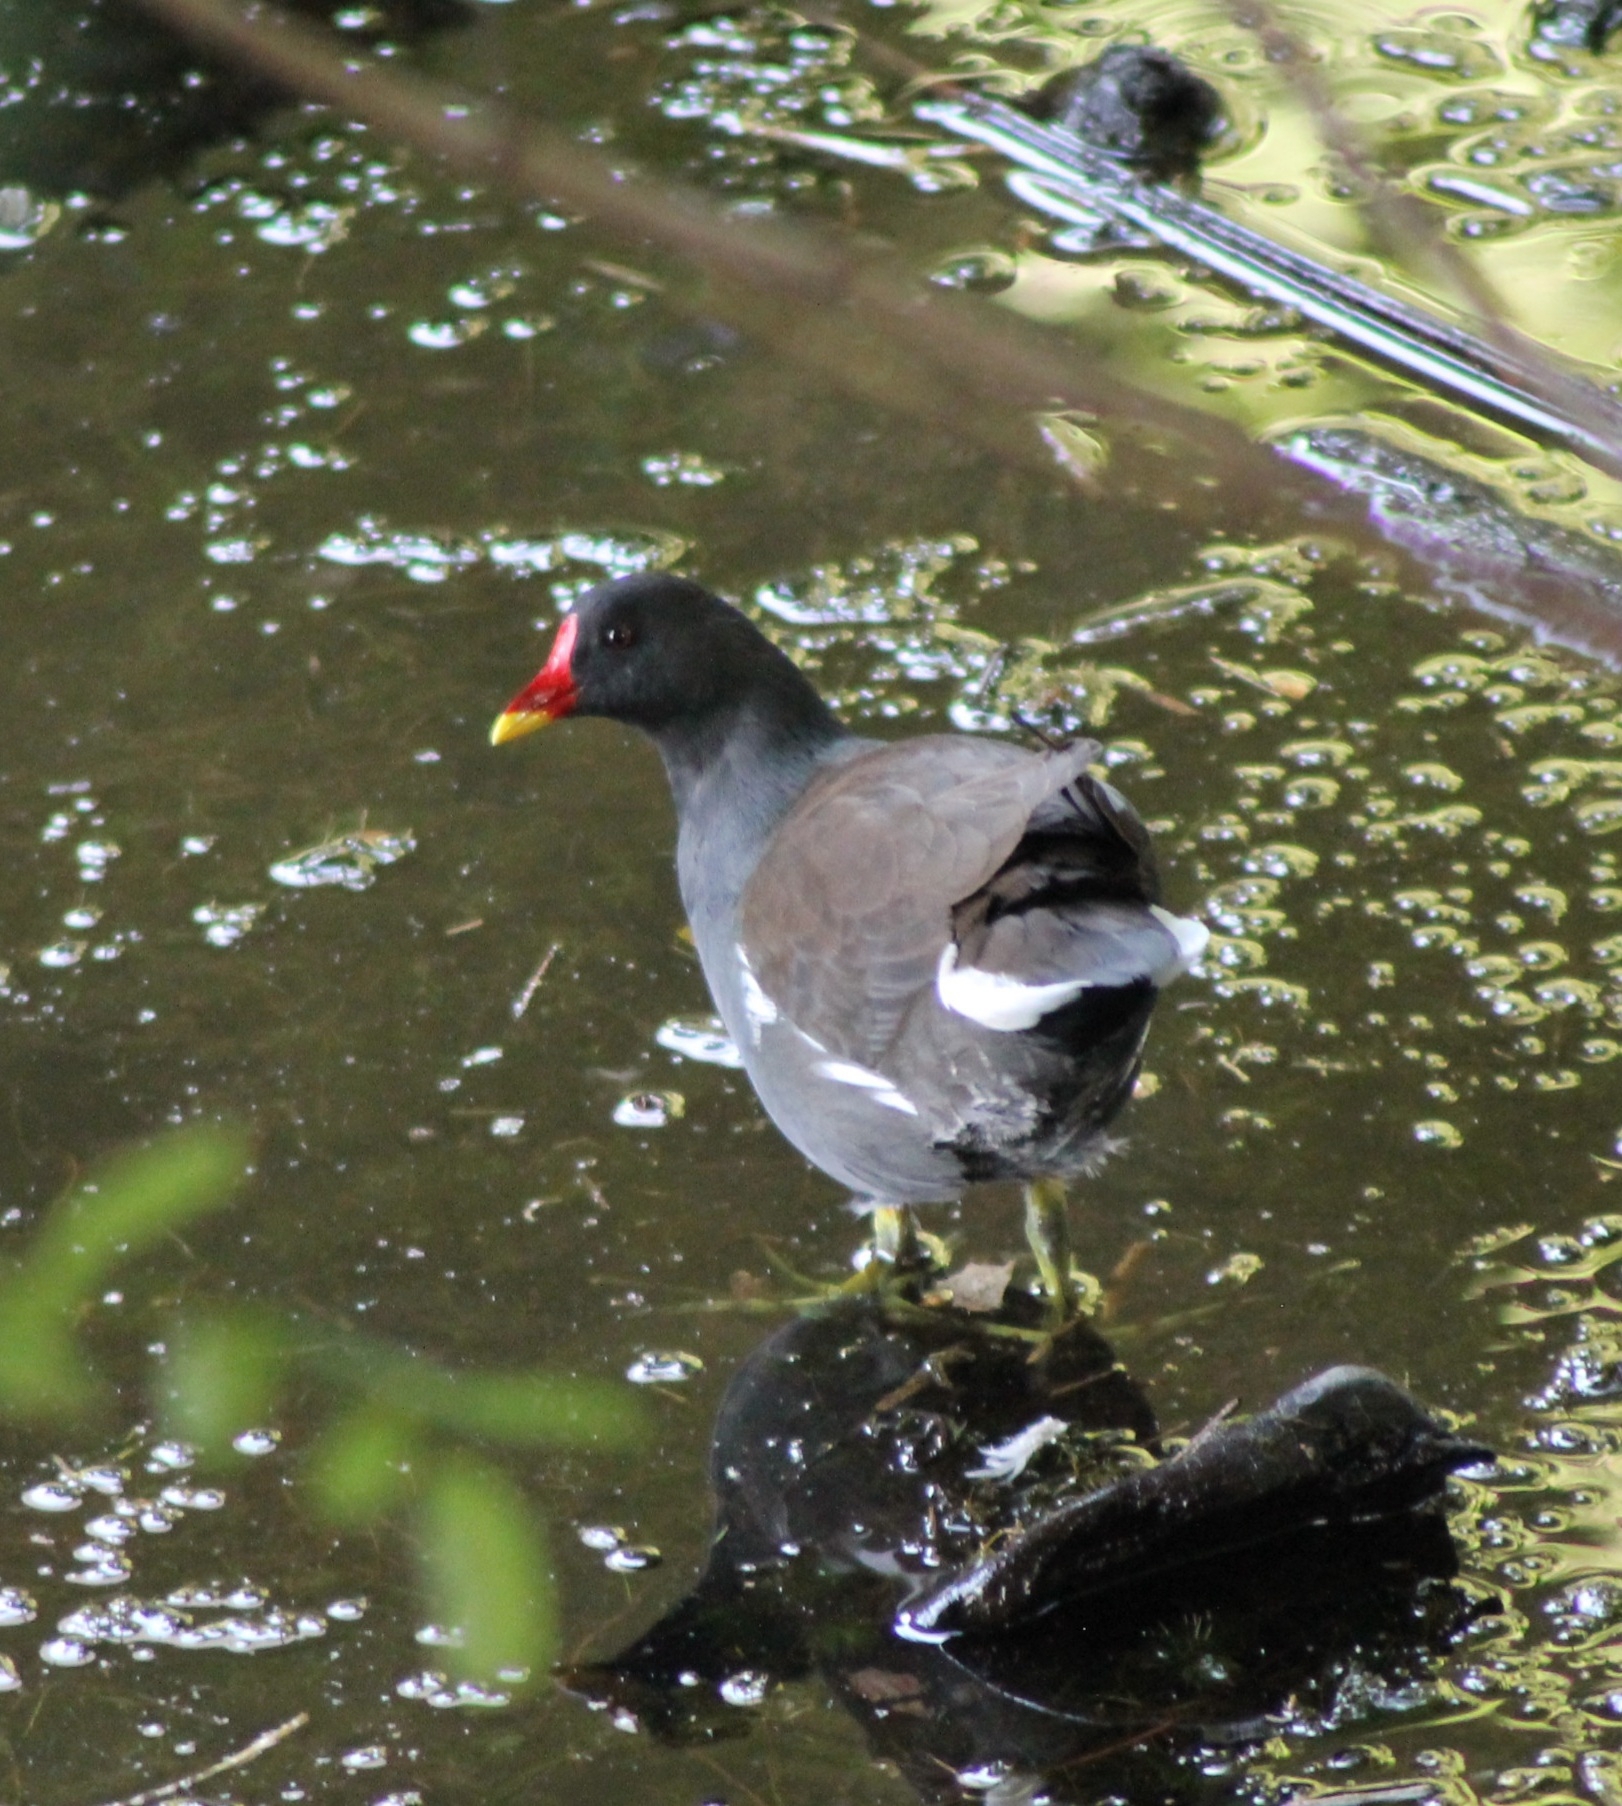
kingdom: Animalia
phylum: Chordata
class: Aves
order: Gruiformes
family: Rallidae
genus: Gallinula
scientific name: Gallinula chloropus
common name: Common moorhen
